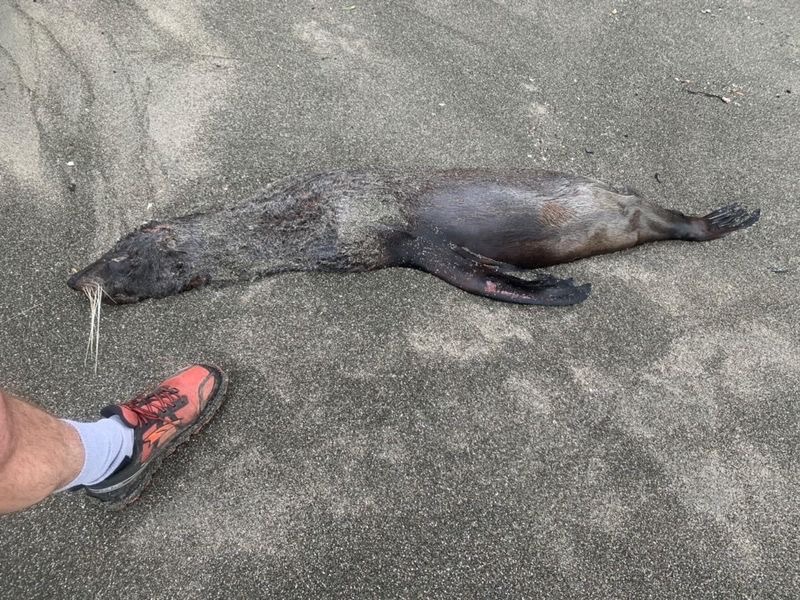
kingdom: Animalia
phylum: Chordata
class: Mammalia
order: Carnivora
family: Otariidae
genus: Arctocephalus
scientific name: Arctocephalus forsteri
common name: New zealand fur seal
